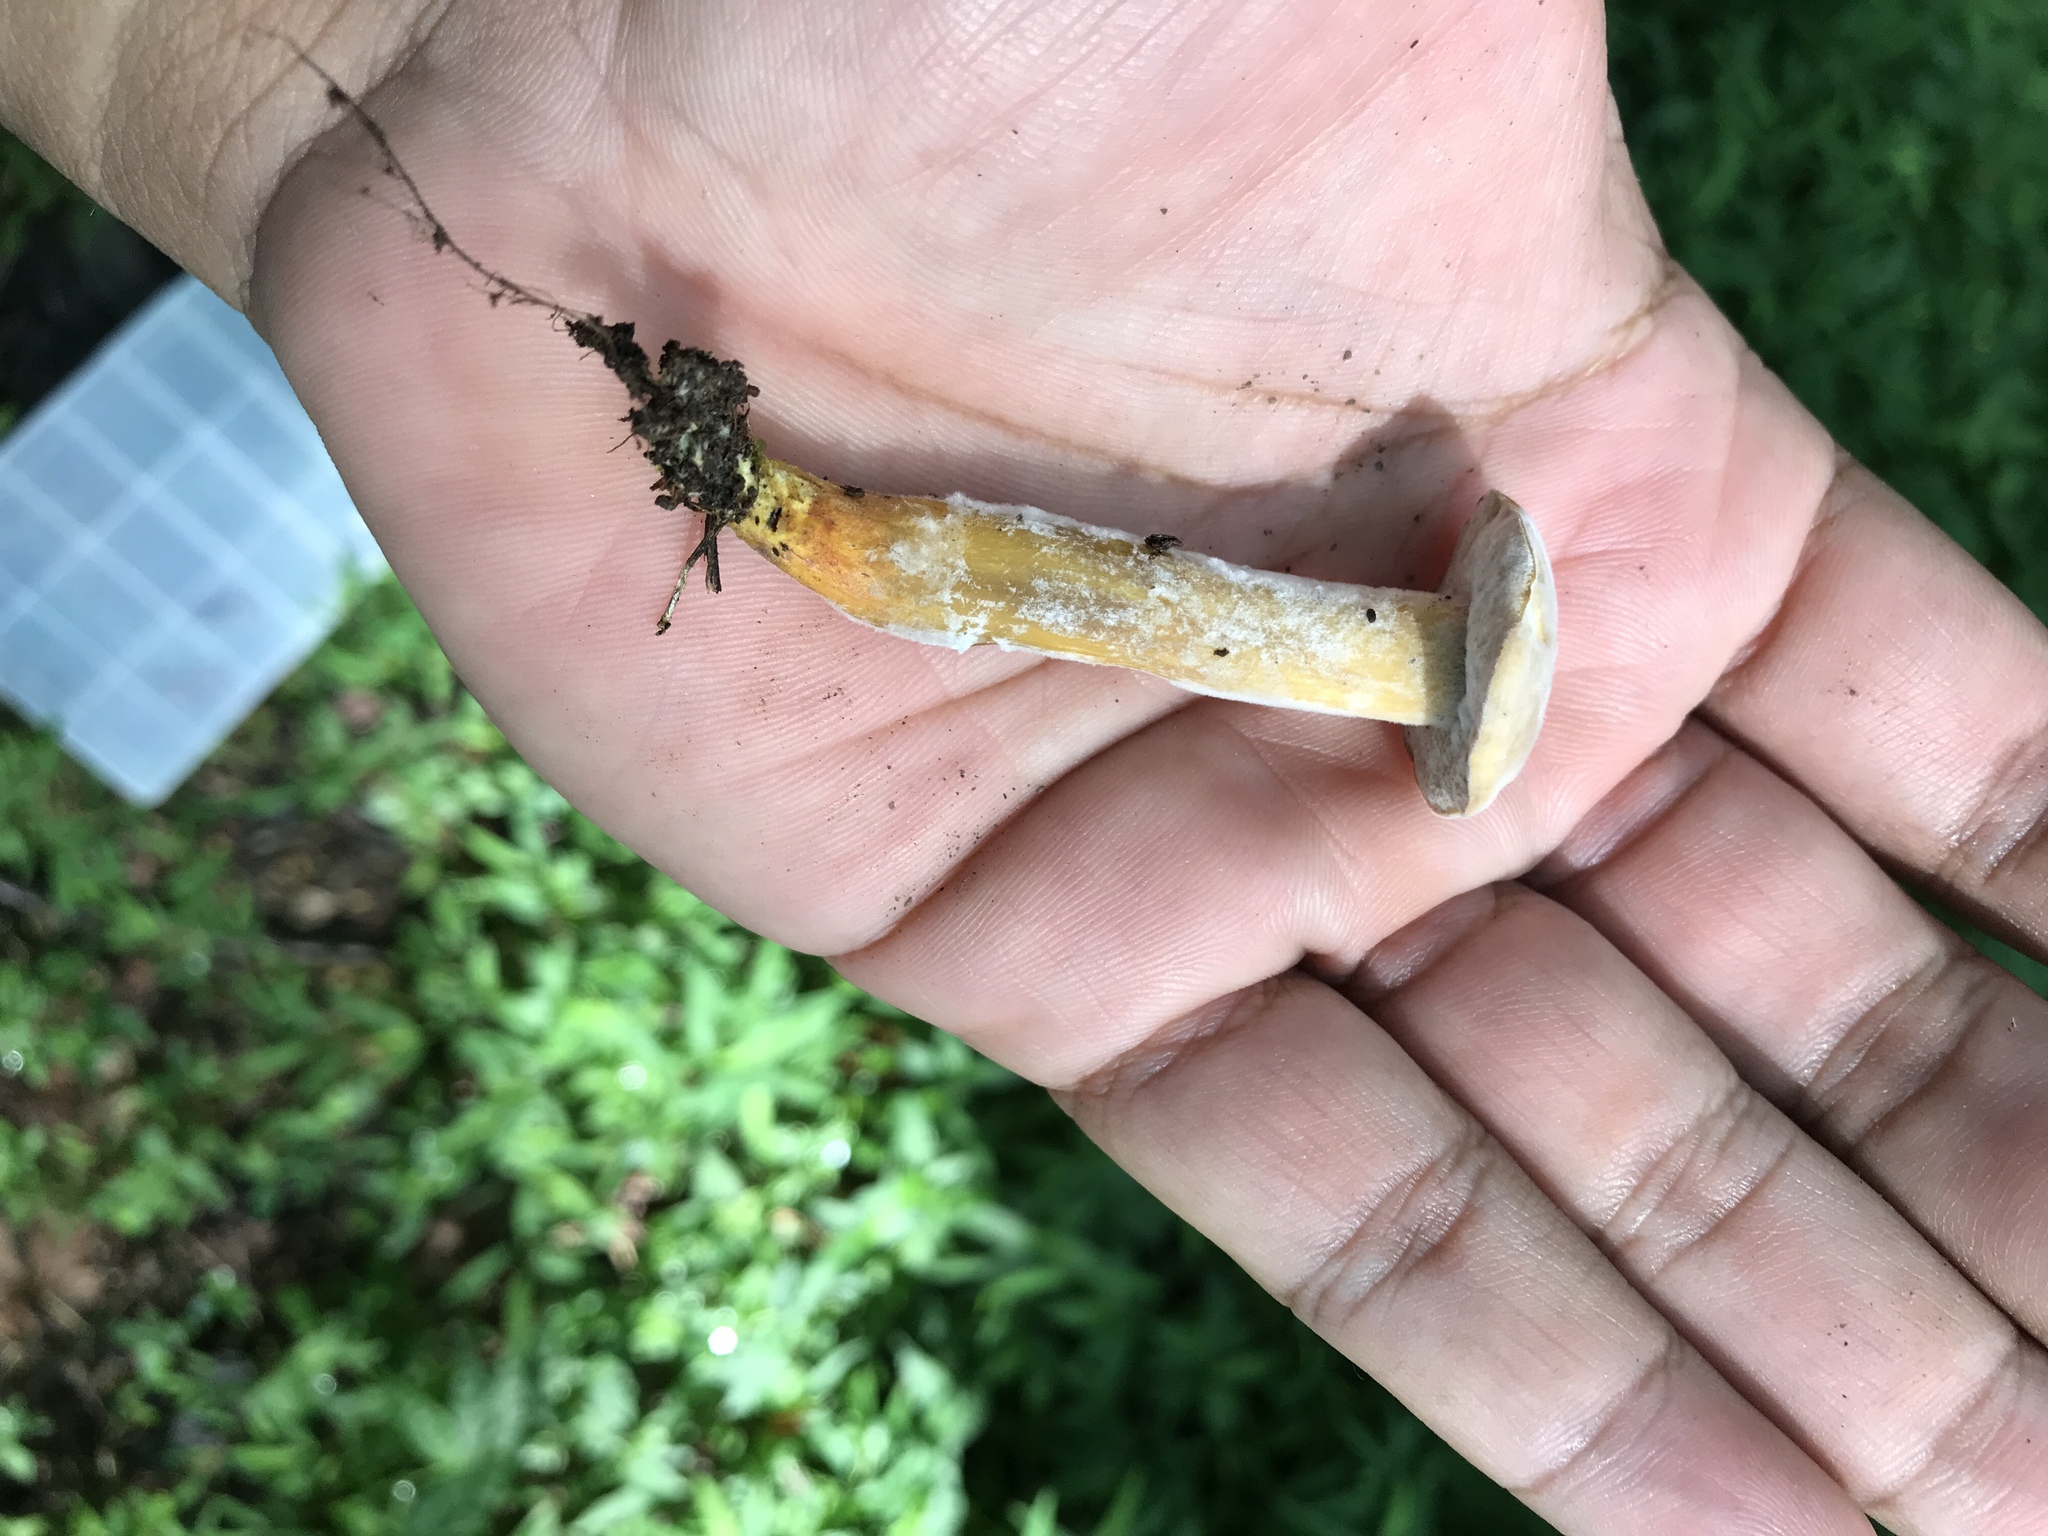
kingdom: Fungi
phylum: Ascomycota
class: Sordariomycetes
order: Hypocreales
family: Hypocreaceae
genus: Hypomyces
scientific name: Hypomyces chrysospermus
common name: Bolete mould
